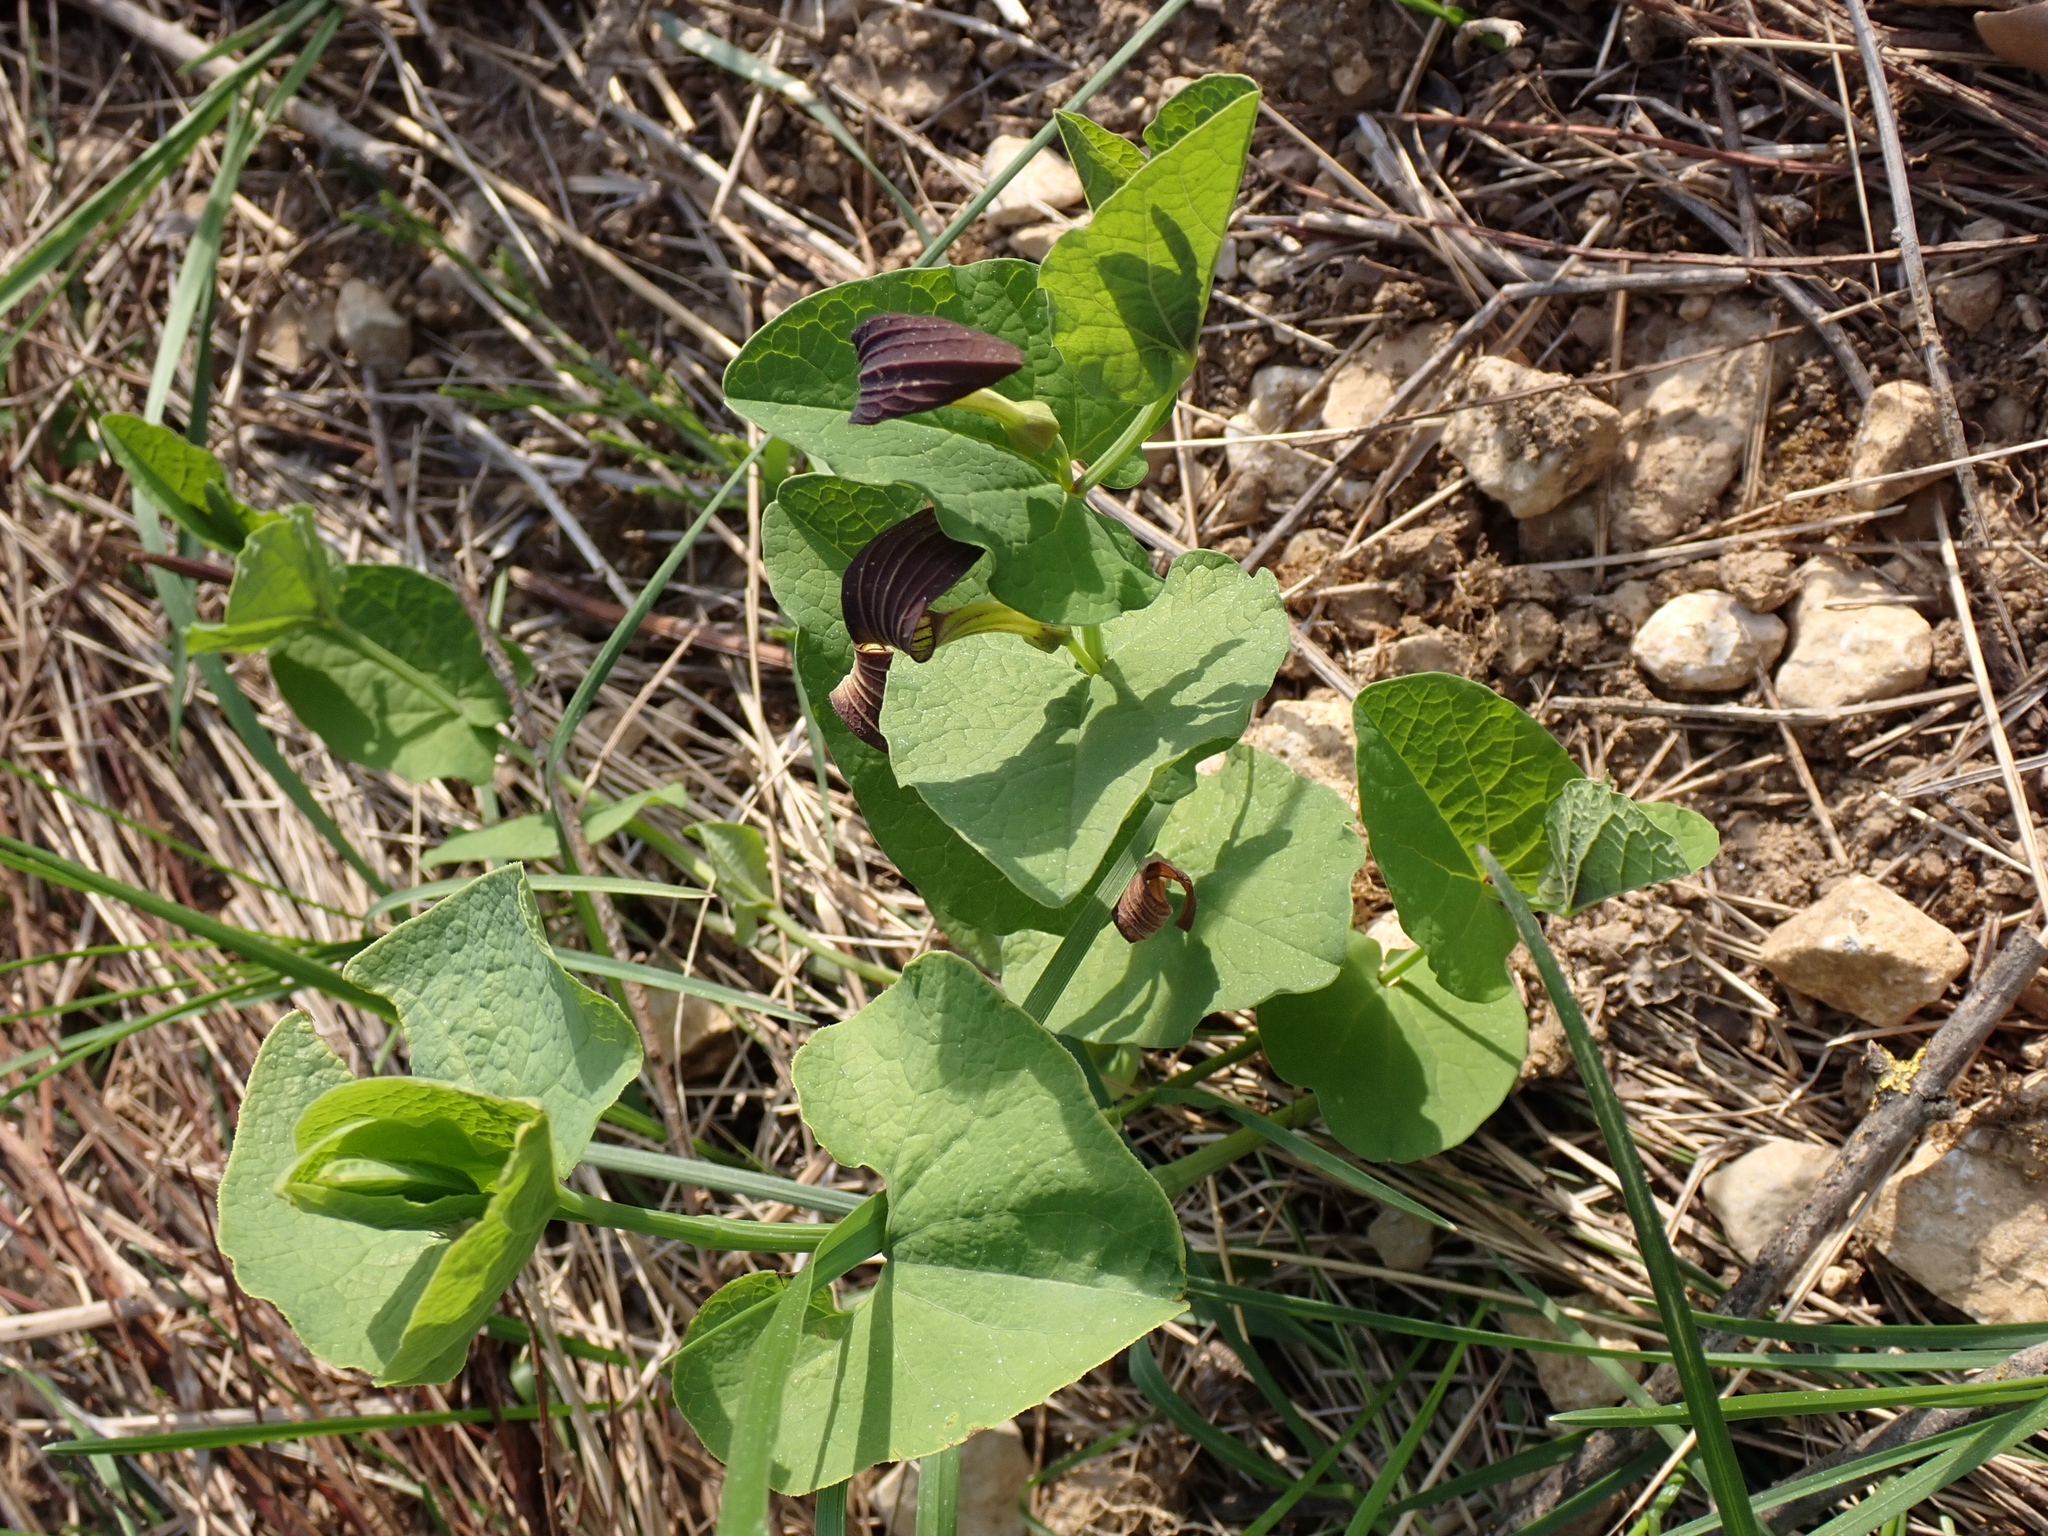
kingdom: Plantae
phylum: Tracheophyta
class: Magnoliopsida
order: Piperales
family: Aristolochiaceae
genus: Aristolochia
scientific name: Aristolochia rotunda
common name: Smearwort
